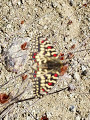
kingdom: Animalia
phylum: Arthropoda
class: Insecta
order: Lepidoptera
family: Papilionidae
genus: Zerynthia
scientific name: Zerynthia rumina
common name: Spanish festoon
